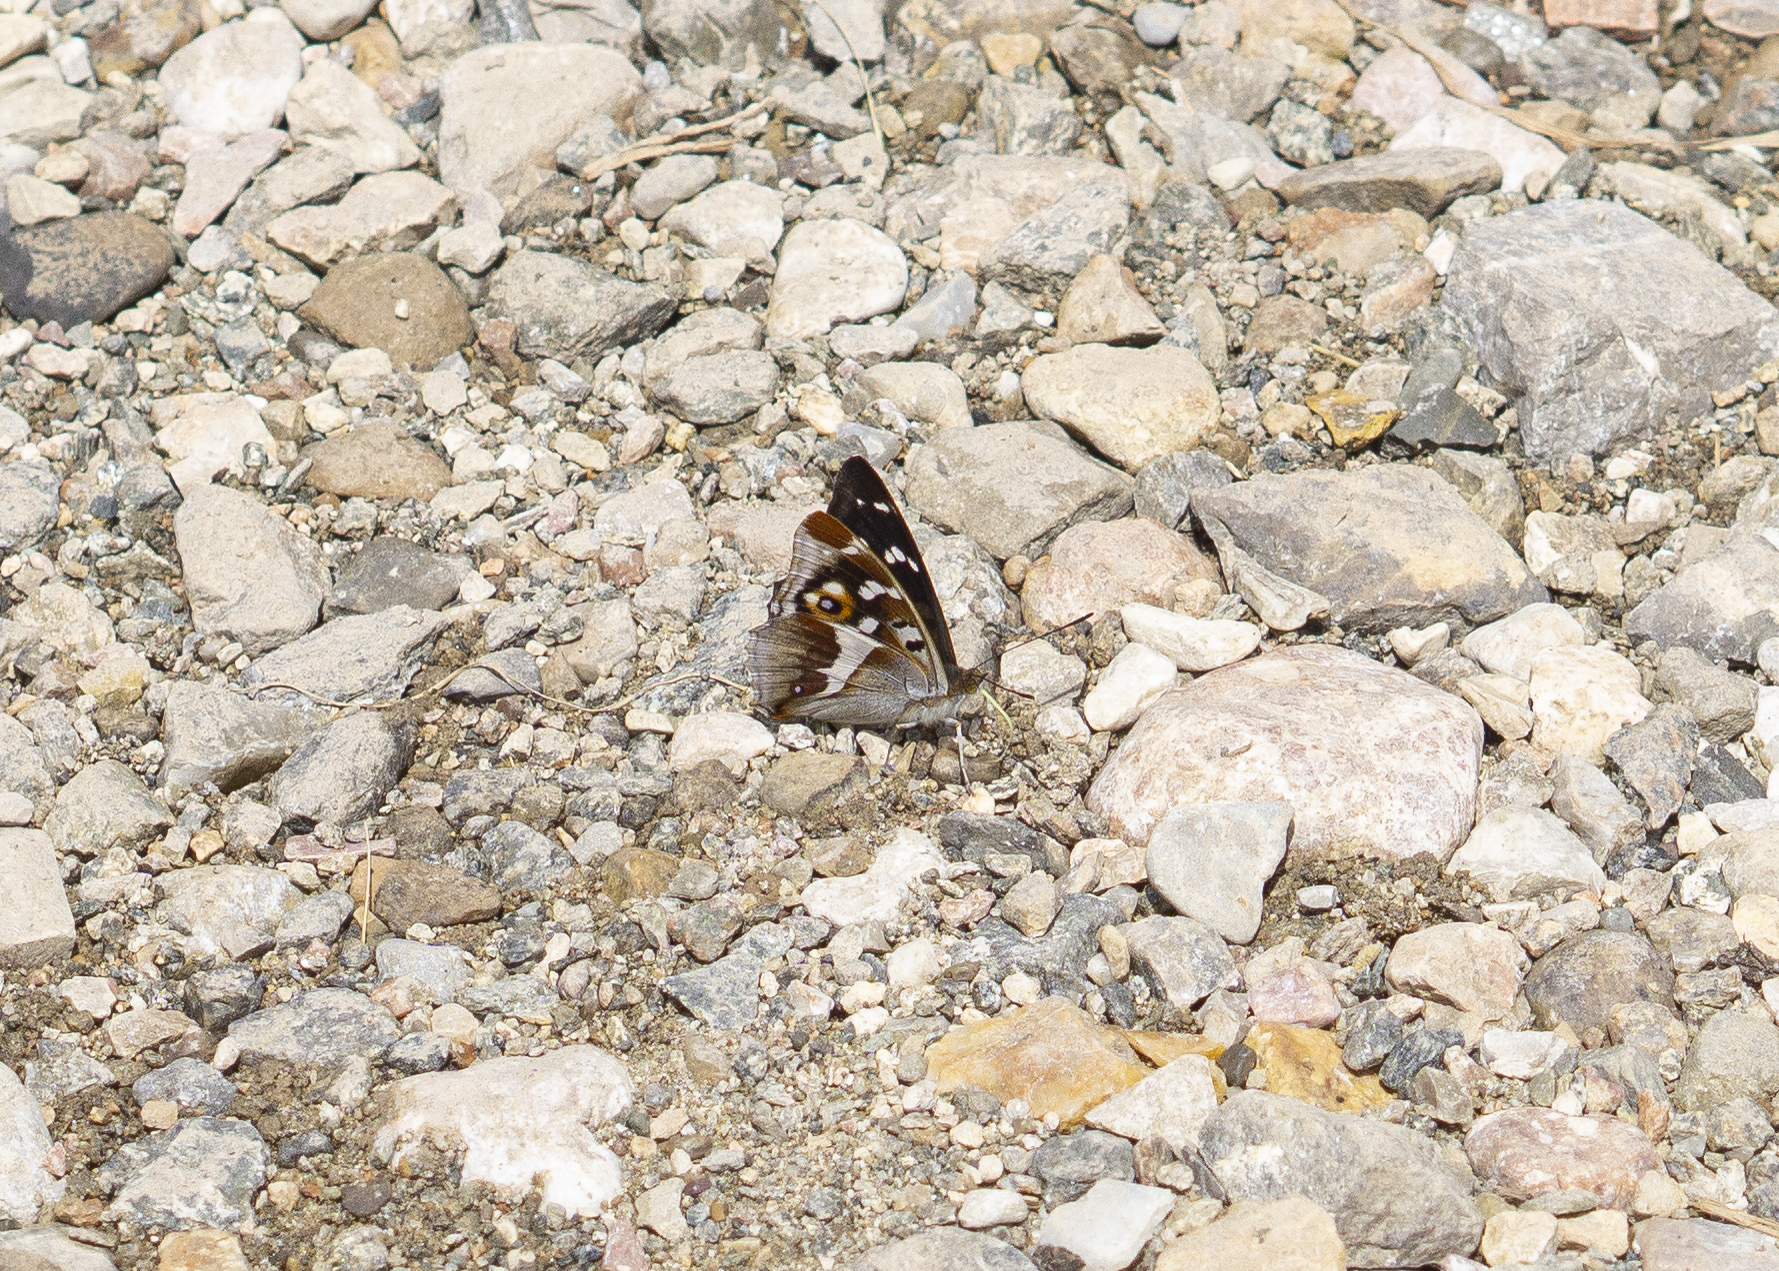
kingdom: Animalia
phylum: Arthropoda
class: Insecta
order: Lepidoptera
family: Nymphalidae
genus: Apatura
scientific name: Apatura iris
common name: Purple emperor
